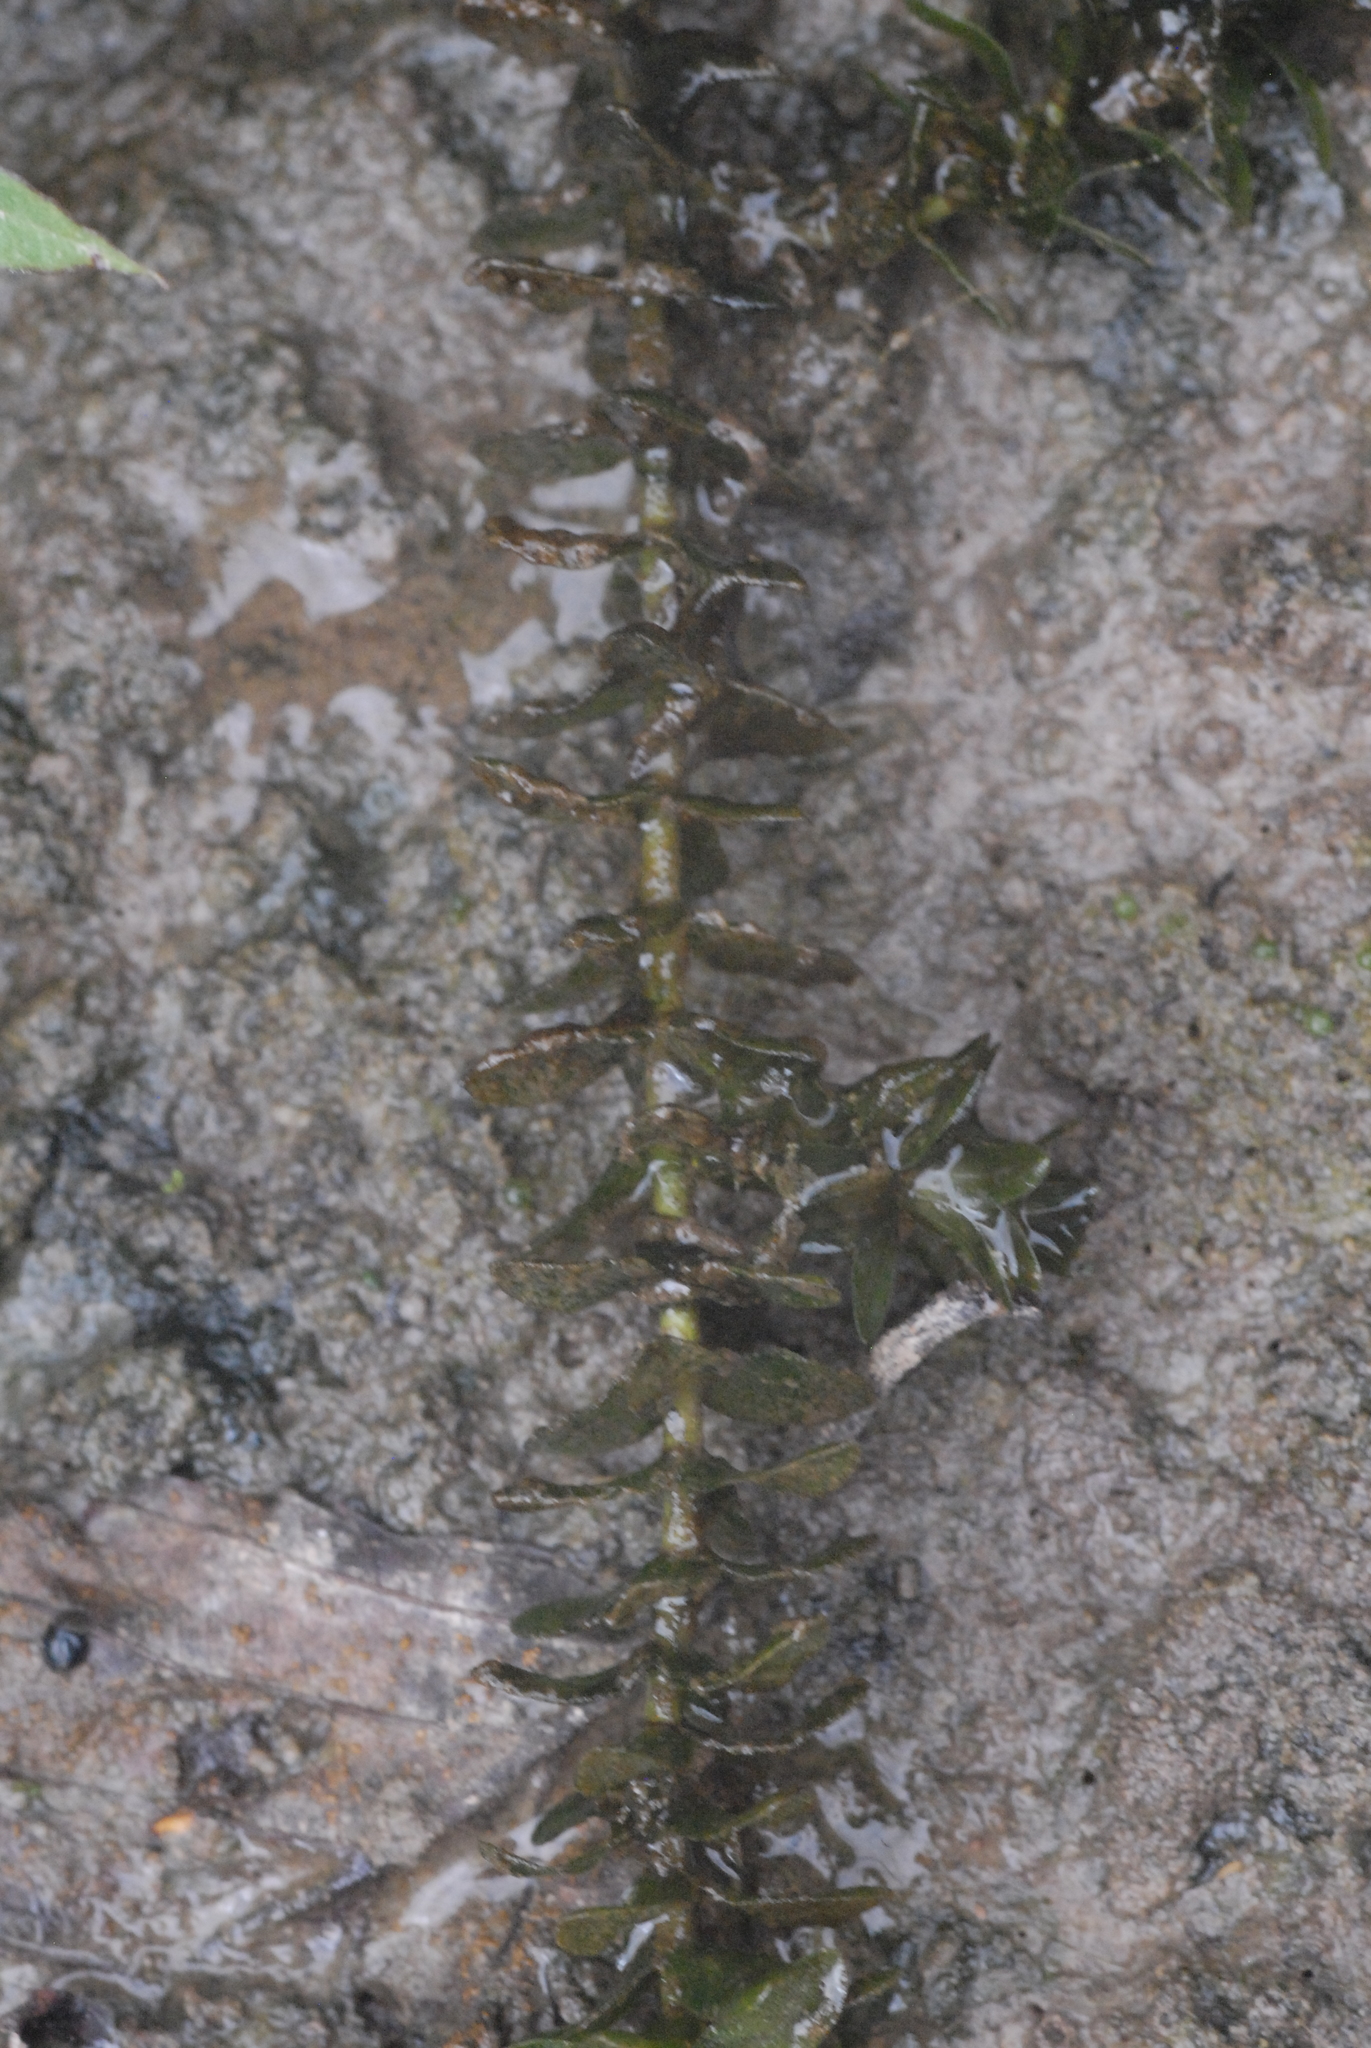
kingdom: Plantae
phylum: Tracheophyta
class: Liliopsida
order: Alismatales
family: Hydrocharitaceae
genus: Elodea
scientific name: Elodea canadensis
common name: Canadian waterweed
